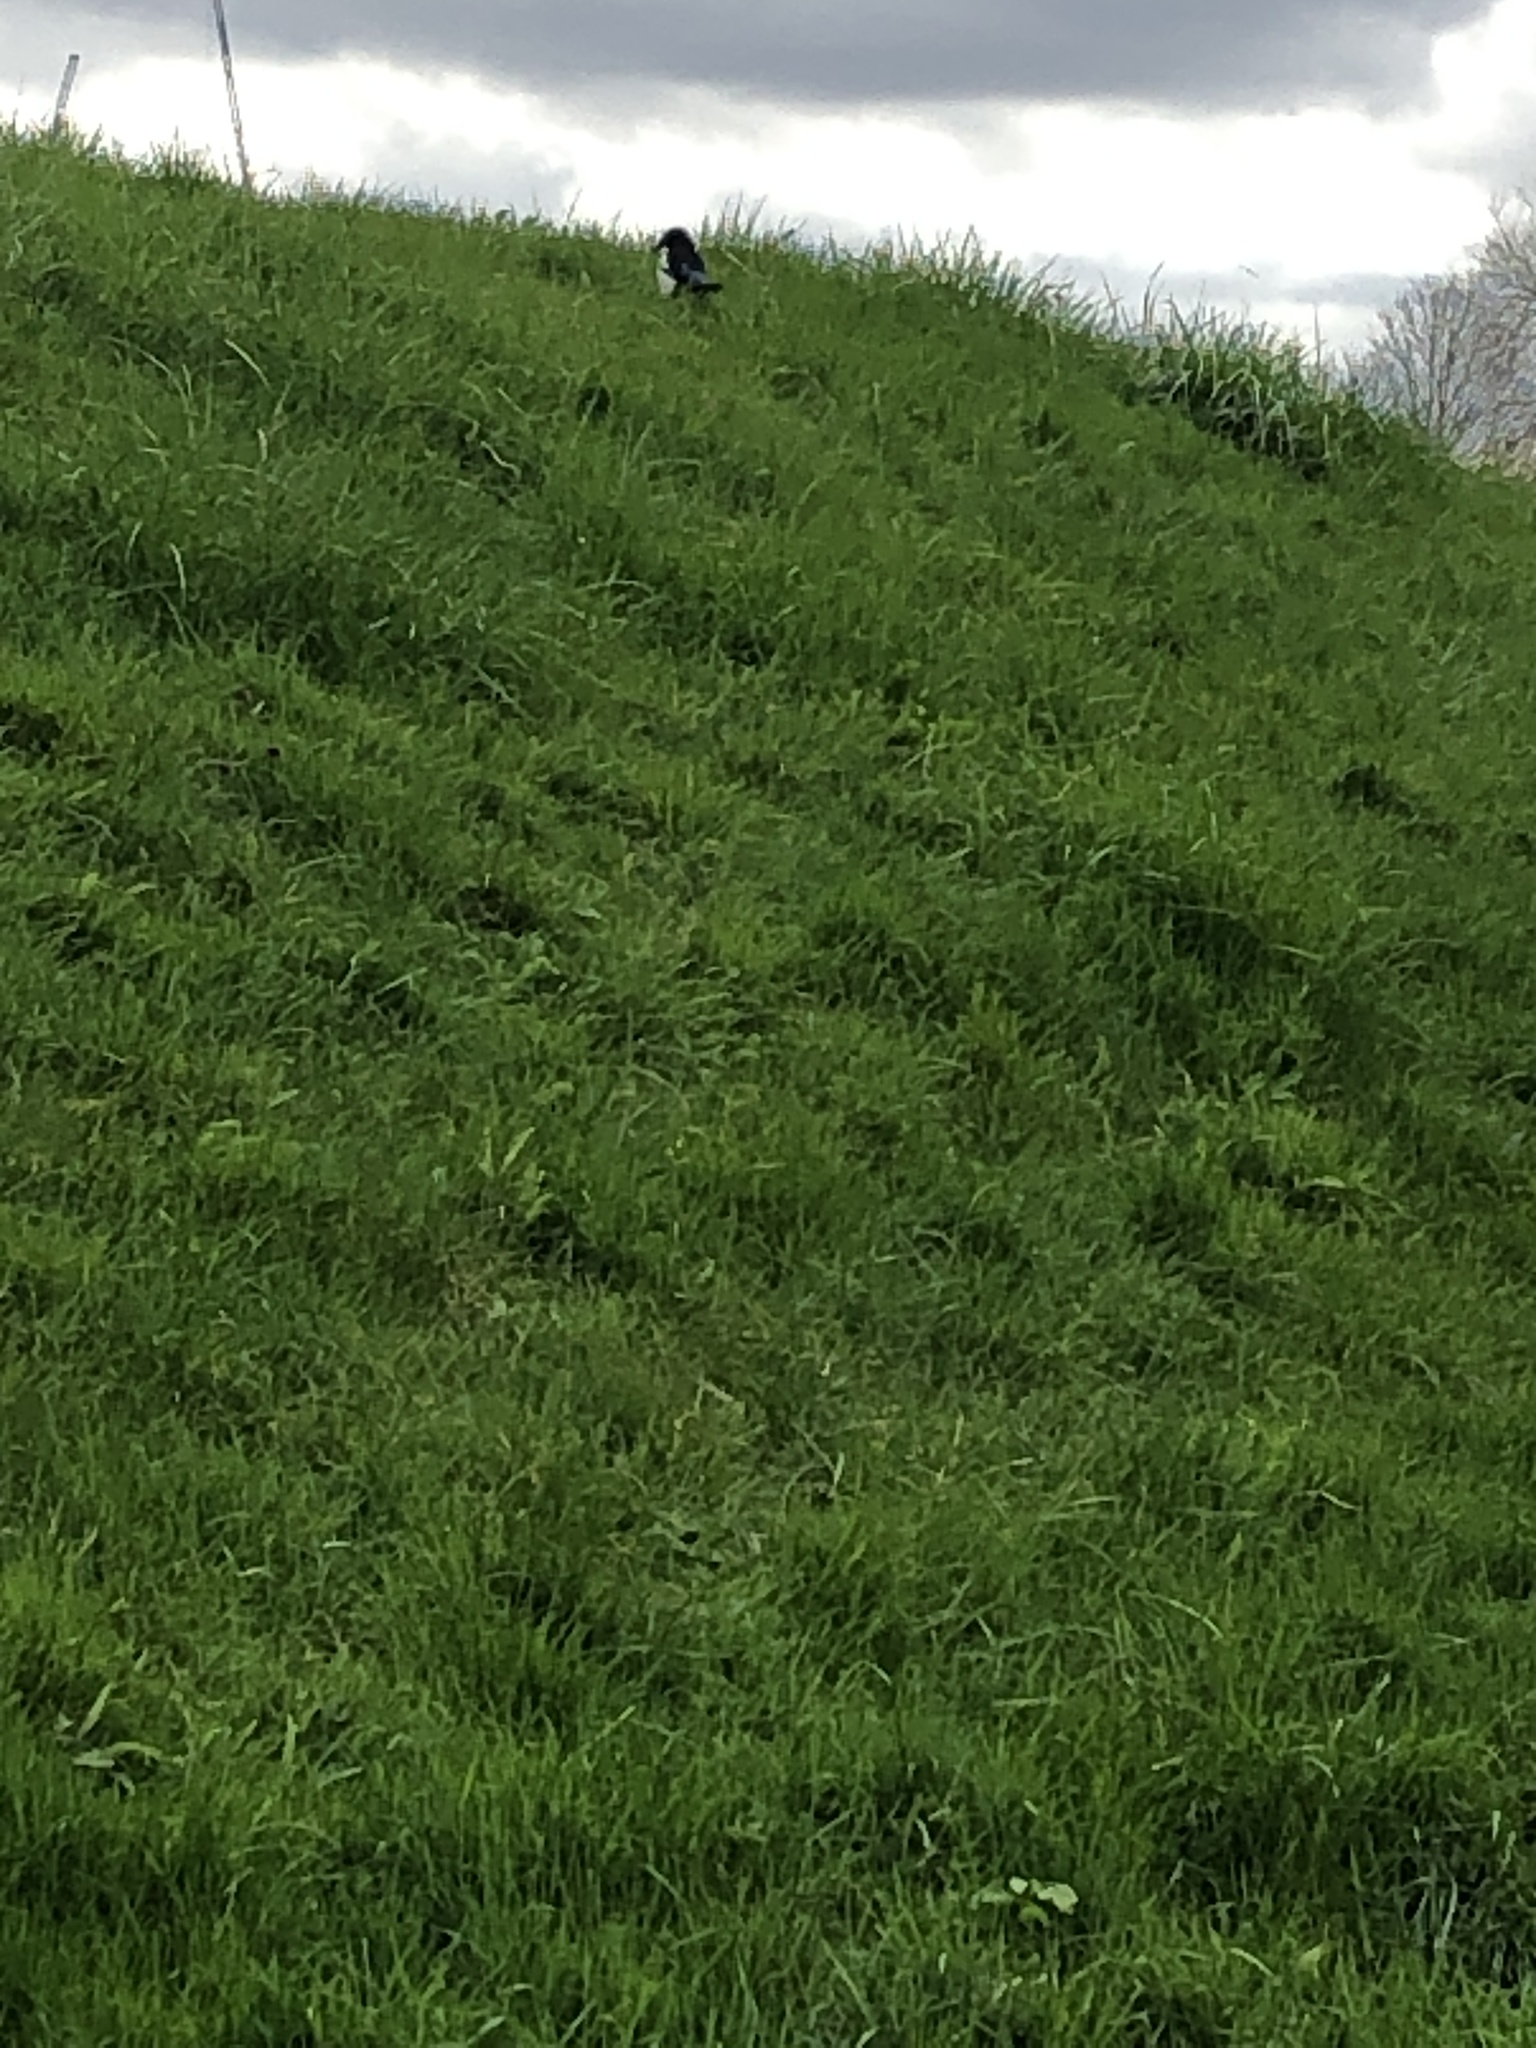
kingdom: Animalia
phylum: Chordata
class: Aves
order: Passeriformes
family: Corvidae
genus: Pica
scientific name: Pica pica
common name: Eurasian magpie
